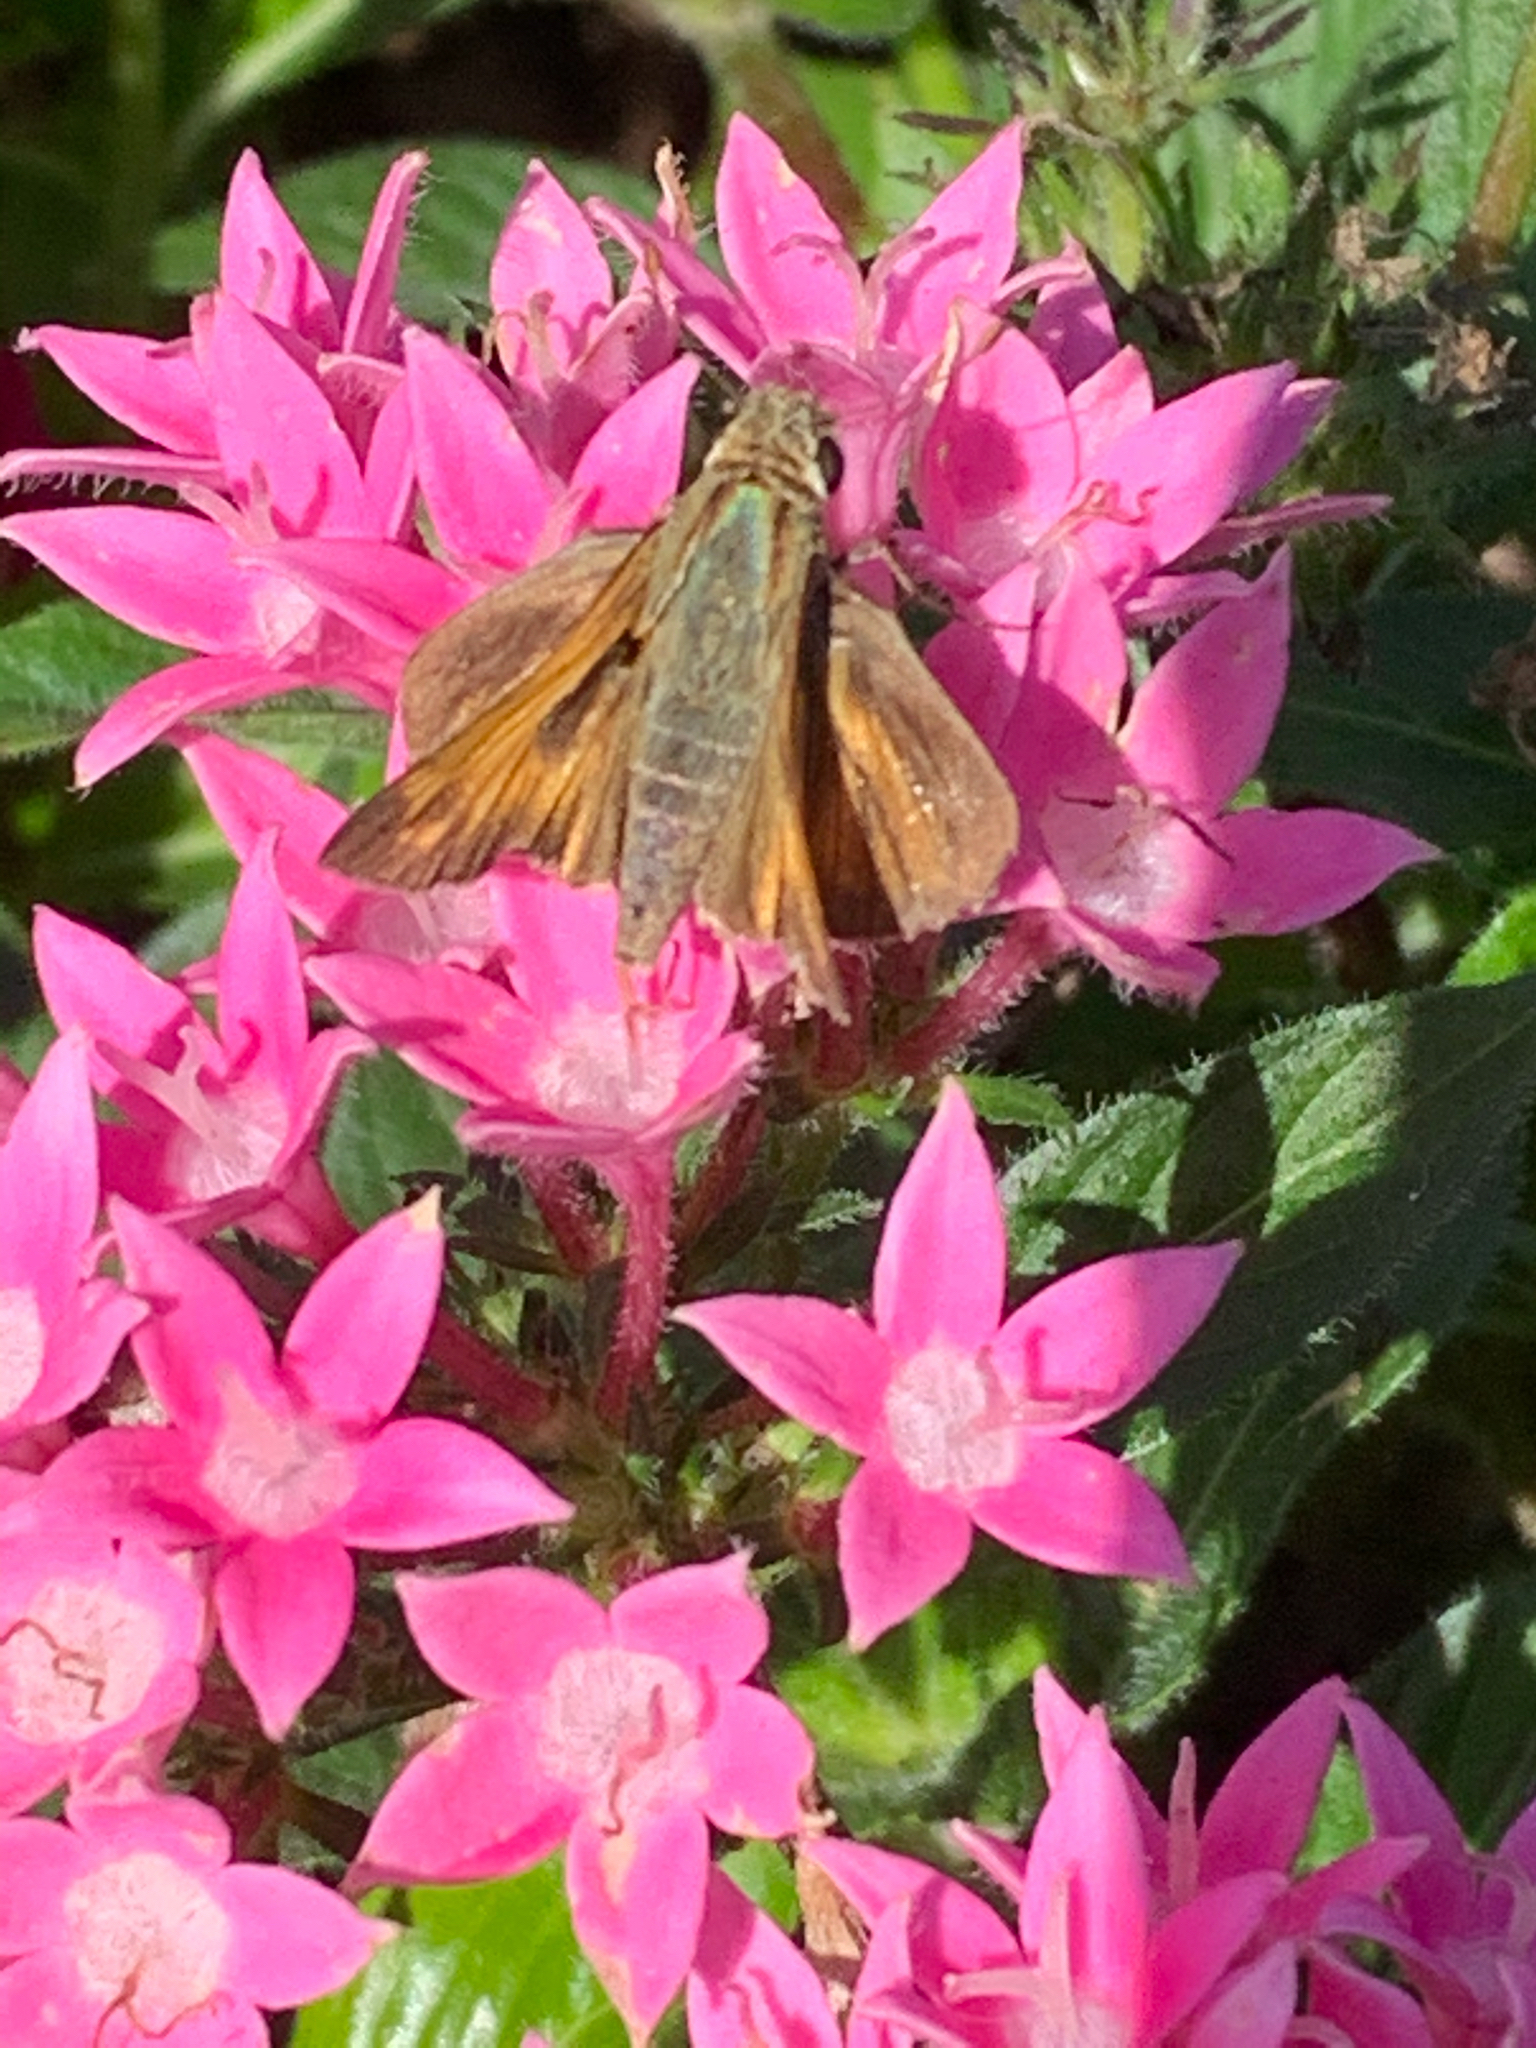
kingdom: Animalia
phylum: Arthropoda
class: Insecta
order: Lepidoptera
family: Hesperiidae
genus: Atalopedes
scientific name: Atalopedes
